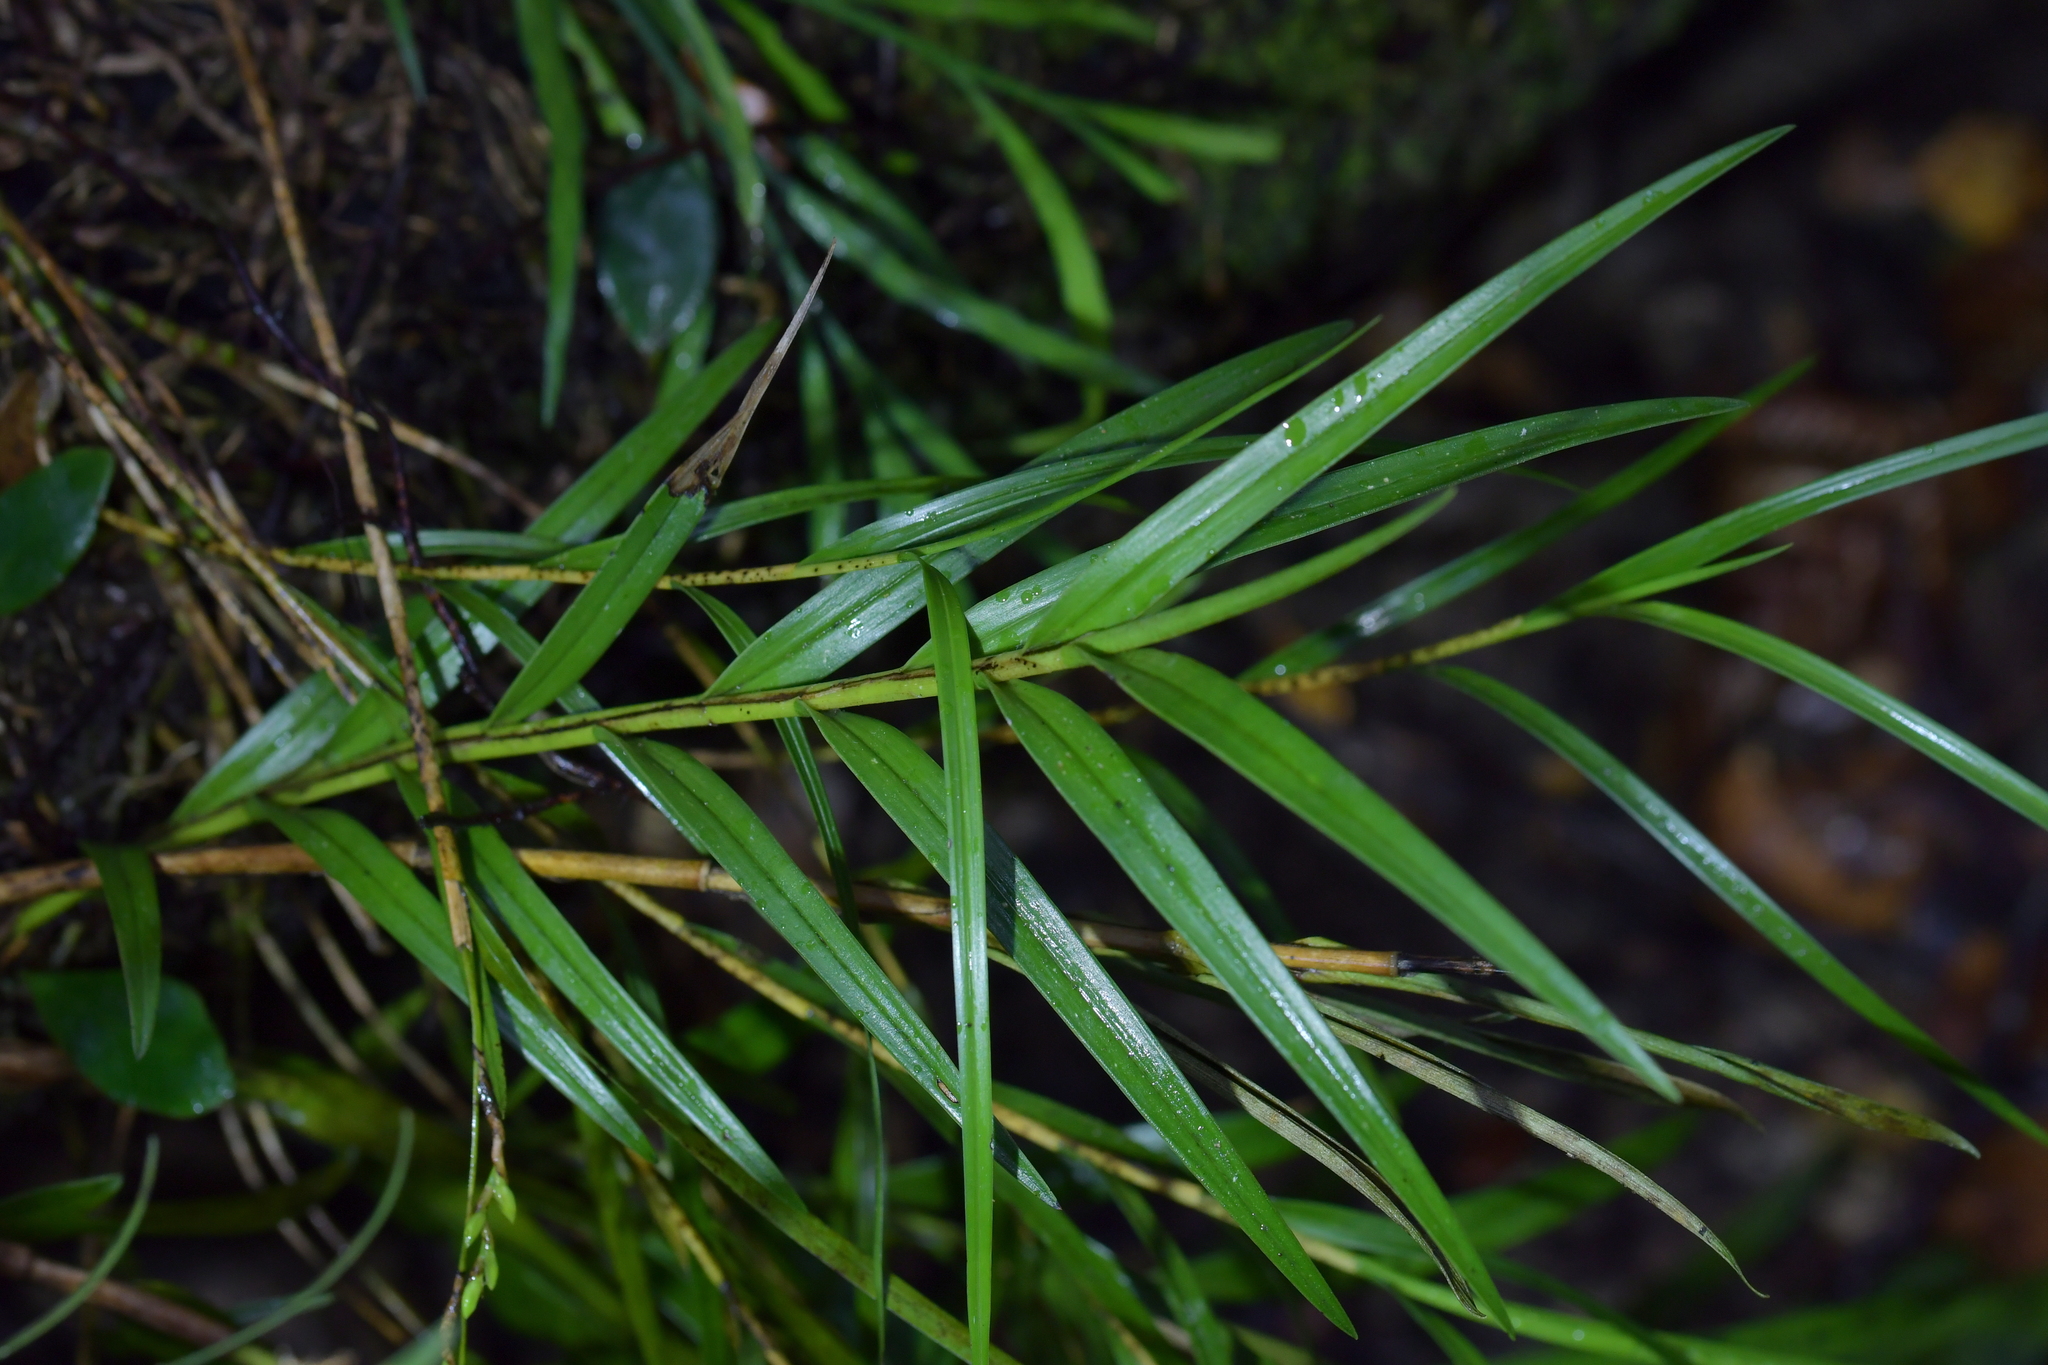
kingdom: Plantae
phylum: Tracheophyta
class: Liliopsida
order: Asparagales
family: Orchidaceae
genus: Earina
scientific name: Earina autumnalis
